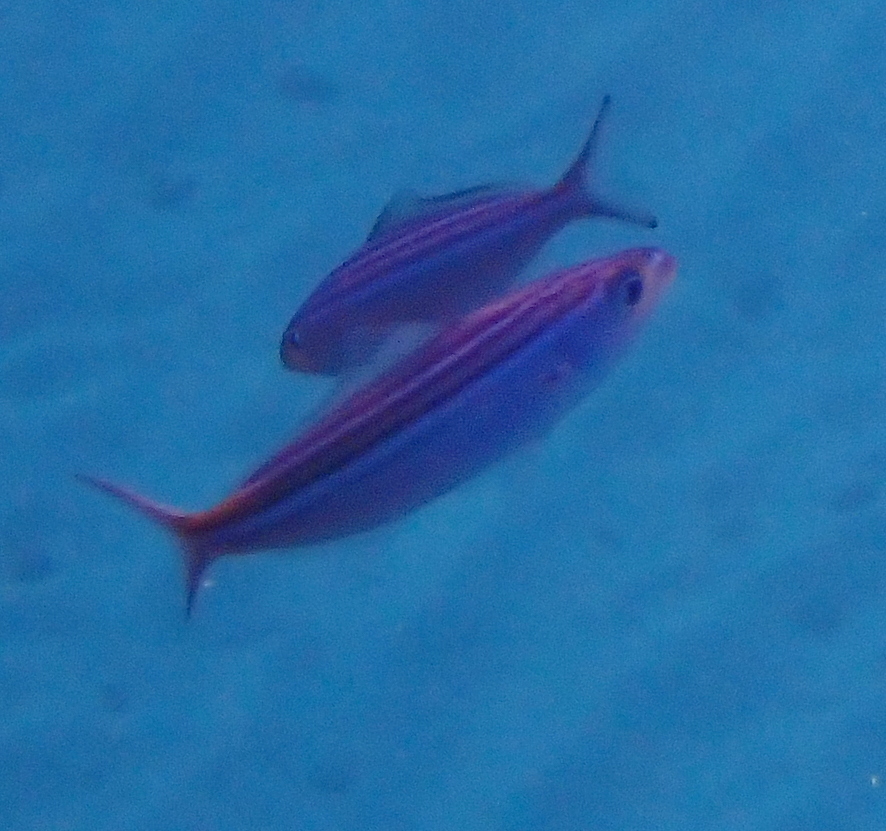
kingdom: Animalia
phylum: Chordata
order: Perciformes
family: Caesionidae
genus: Caesio
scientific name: Caesio striata
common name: Striated fusilier
